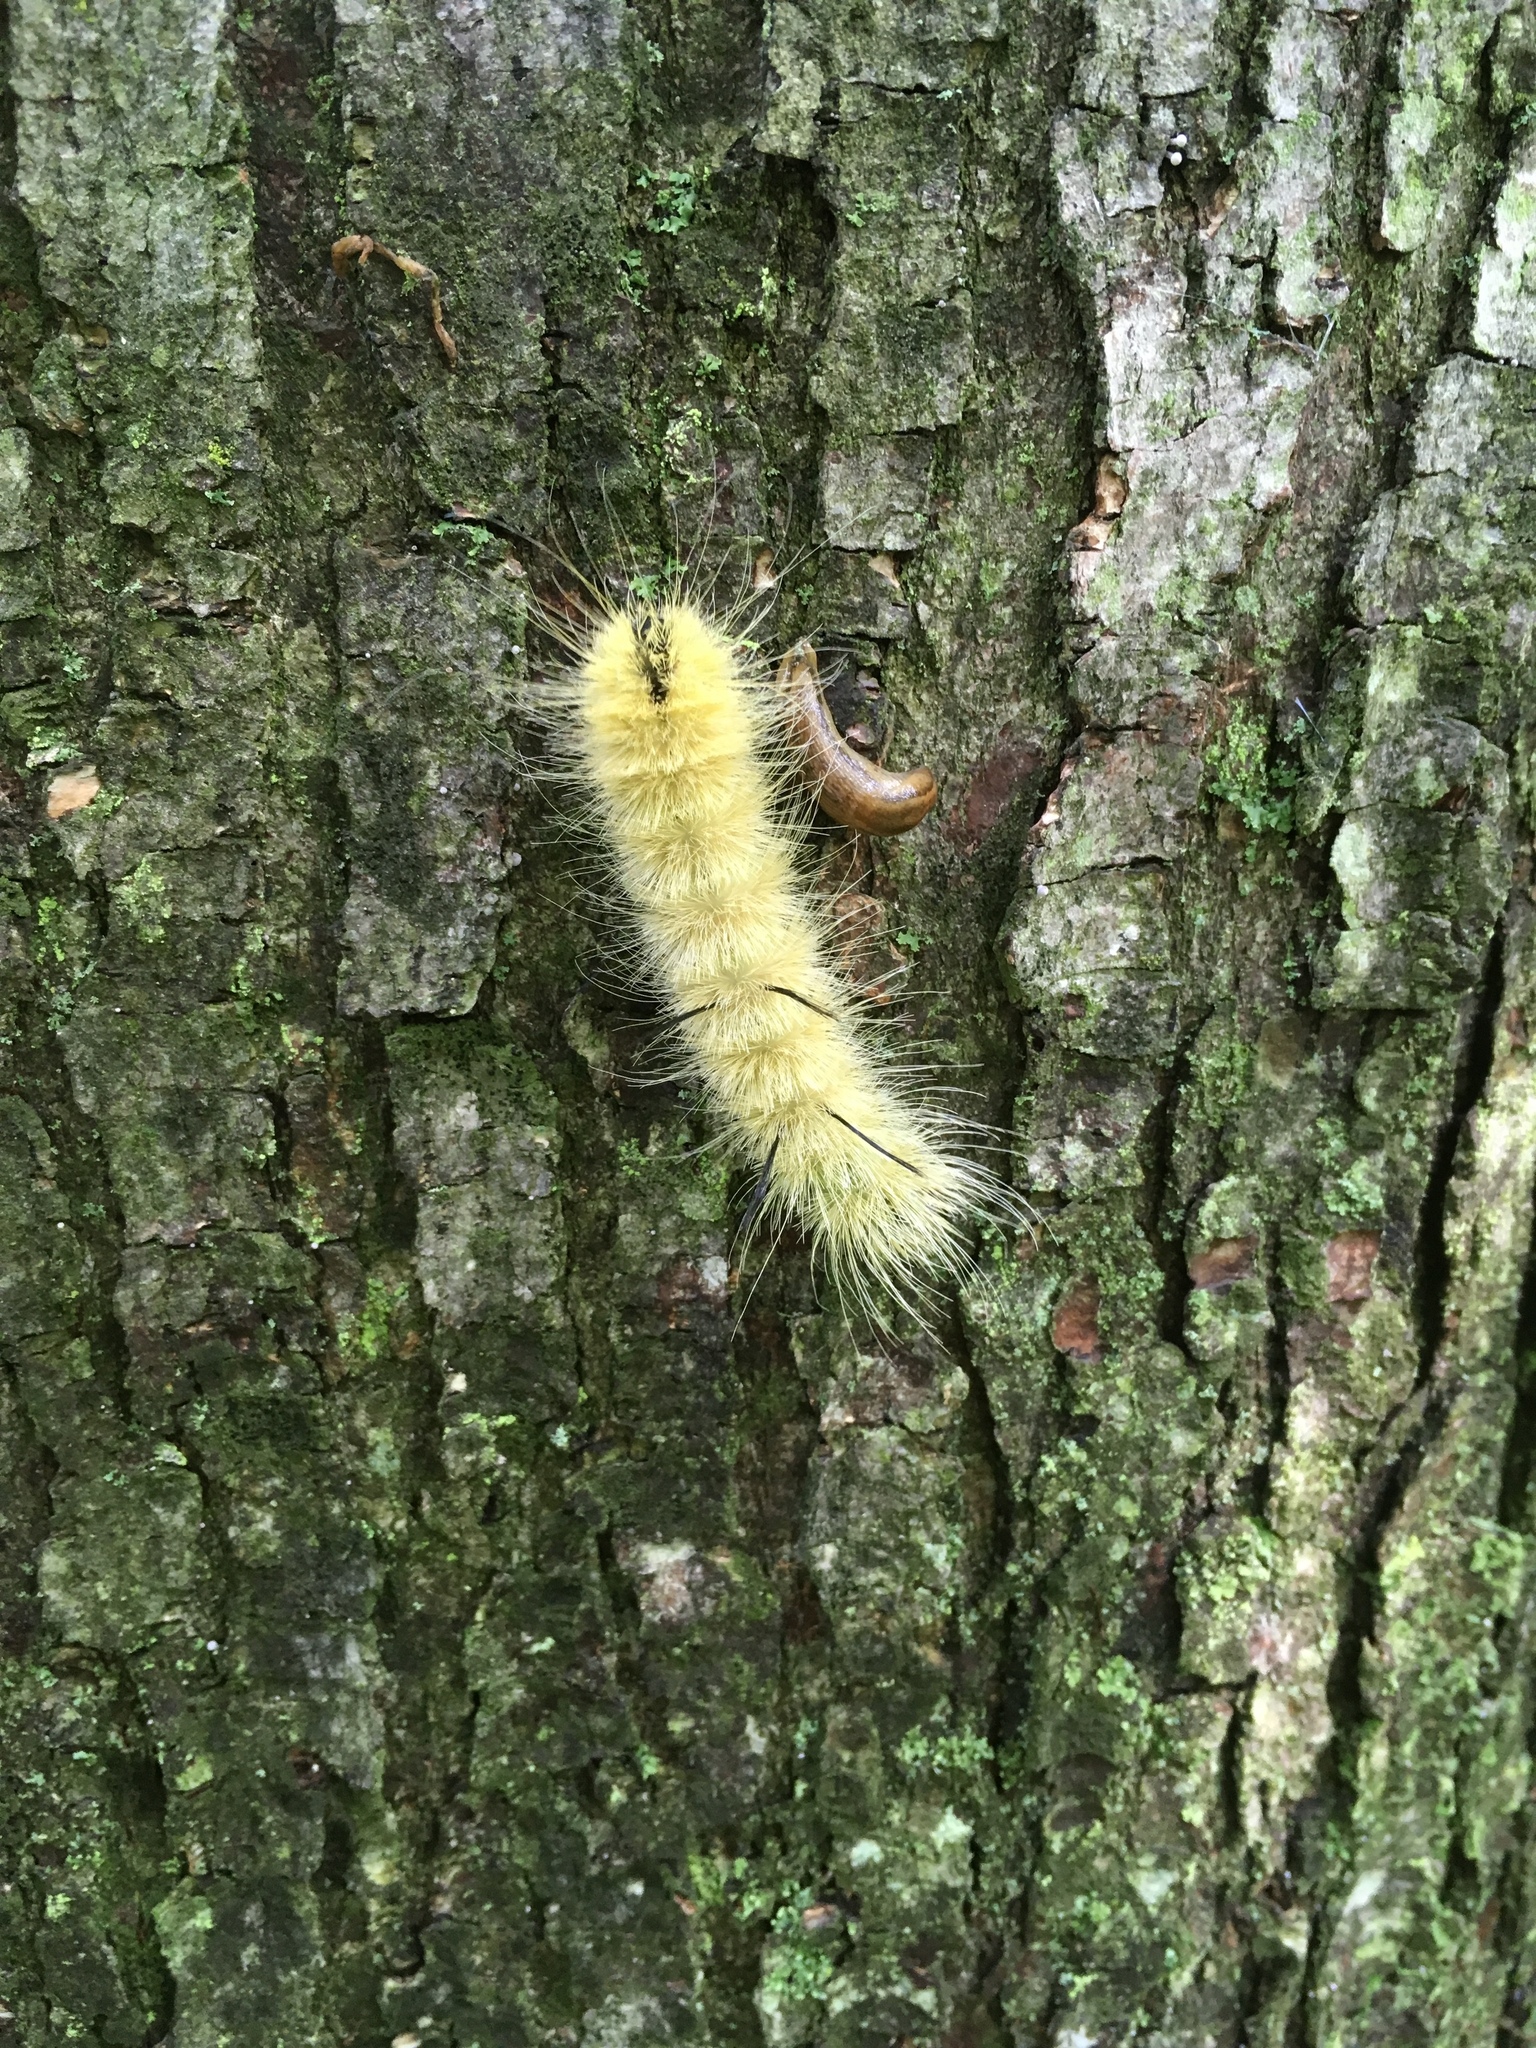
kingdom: Animalia
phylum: Arthropoda
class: Insecta
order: Lepidoptera
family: Noctuidae
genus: Acronicta
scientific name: Acronicta americana
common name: American dagger
